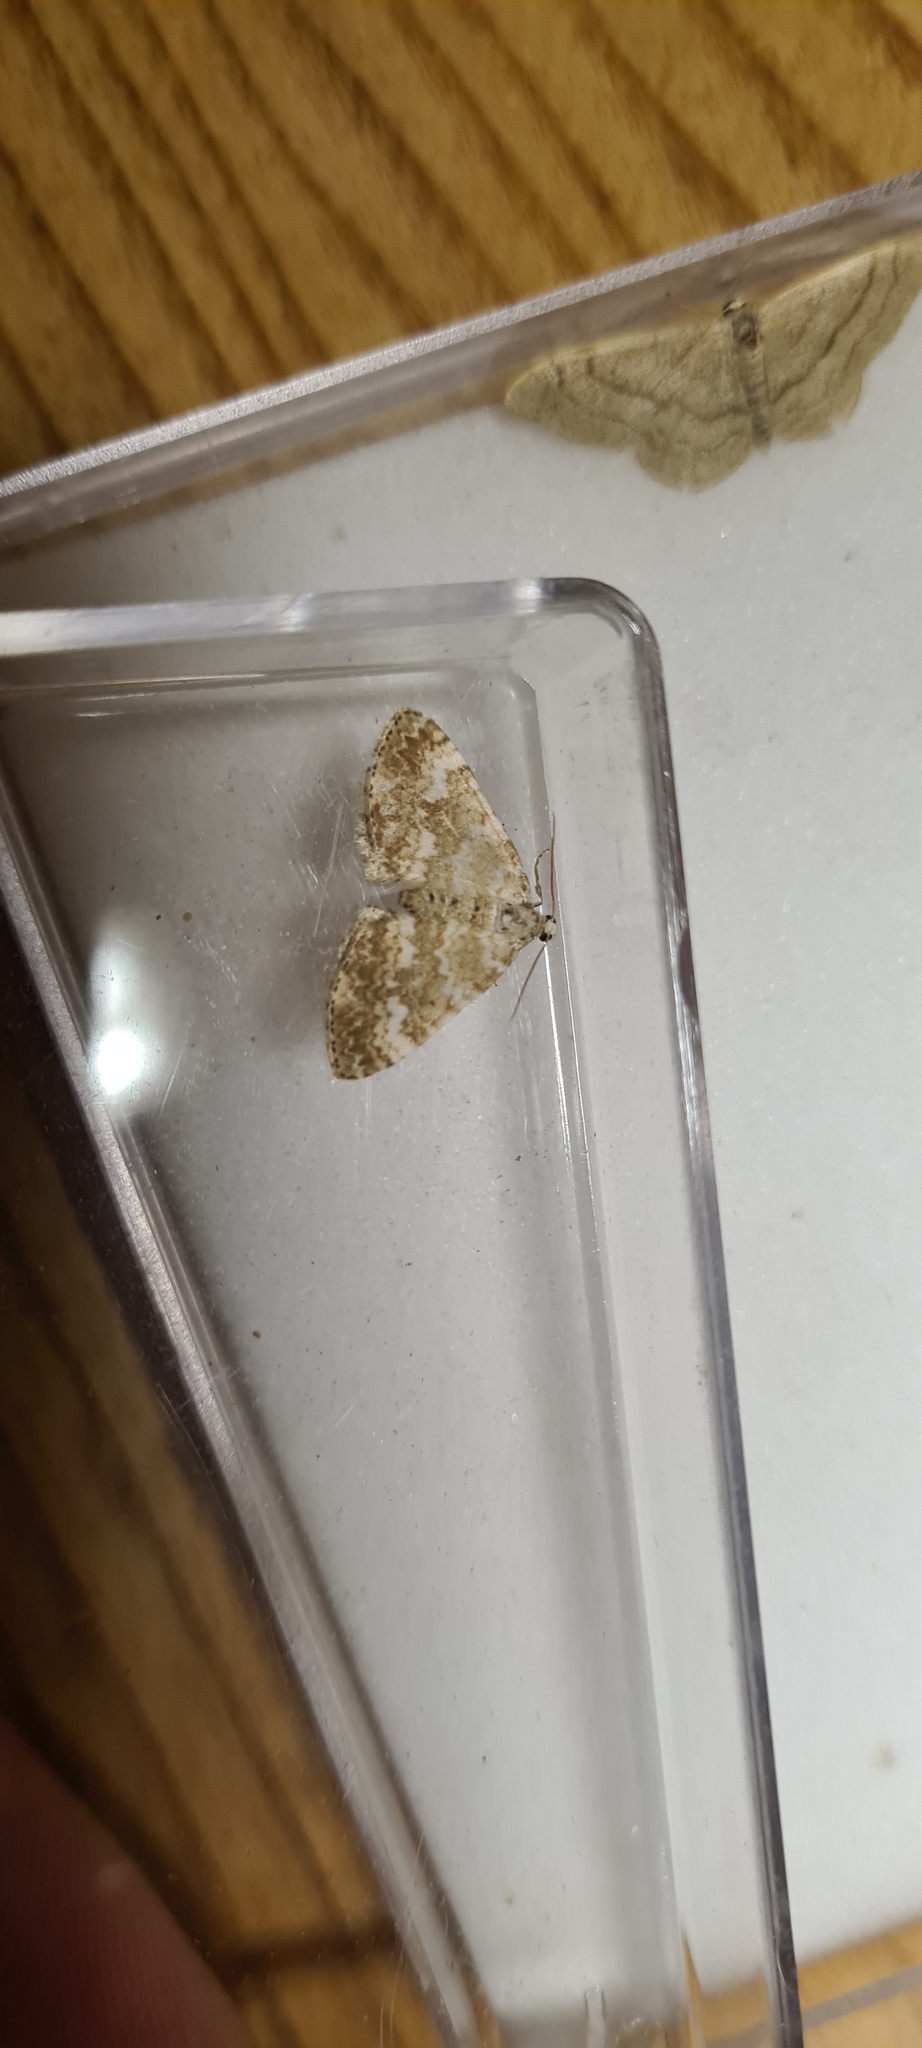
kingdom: Animalia
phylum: Arthropoda
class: Insecta
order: Lepidoptera
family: Geometridae
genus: Perizoma
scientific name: Perizoma flavofasciata
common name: Sandy carpet
